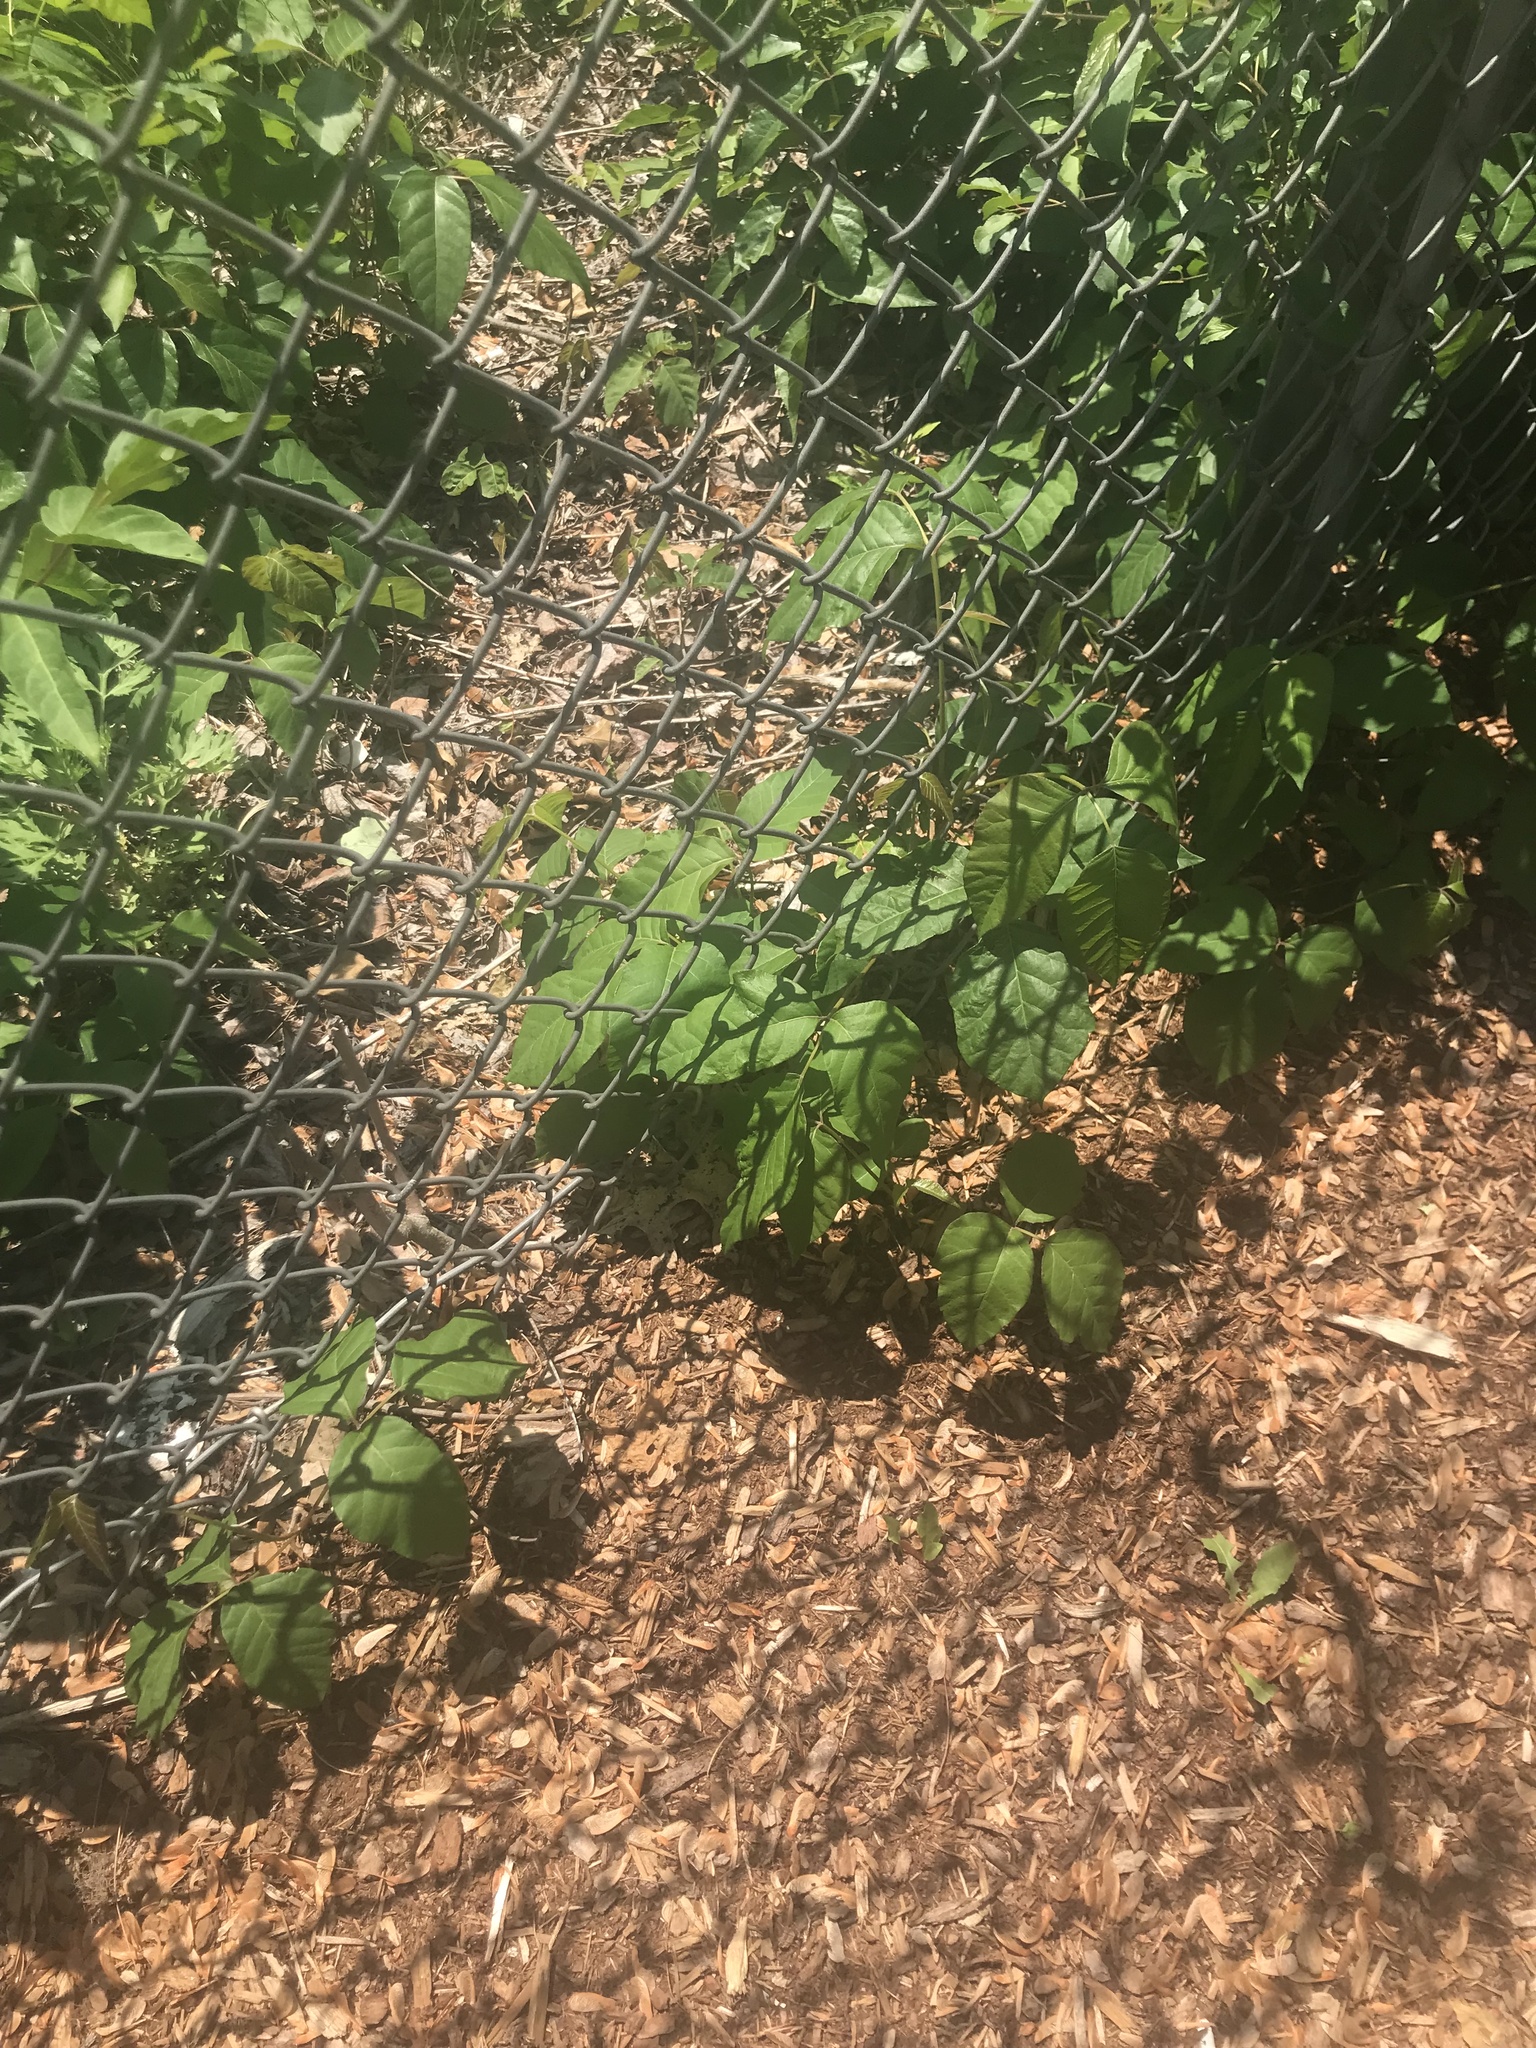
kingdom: Plantae
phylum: Tracheophyta
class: Magnoliopsida
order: Sapindales
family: Anacardiaceae
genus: Toxicodendron
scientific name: Toxicodendron radicans
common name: Poison ivy
